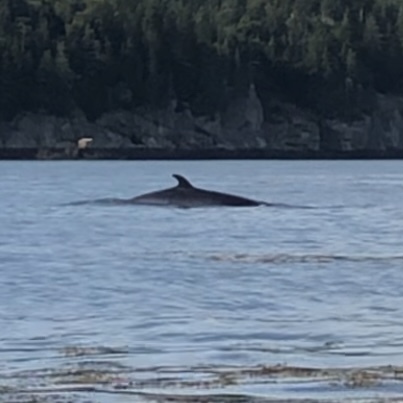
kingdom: Animalia
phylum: Chordata
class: Mammalia
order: Cetacea
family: Balaenopteridae
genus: Balaenoptera
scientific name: Balaenoptera acutorostrata
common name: Common minke whale
